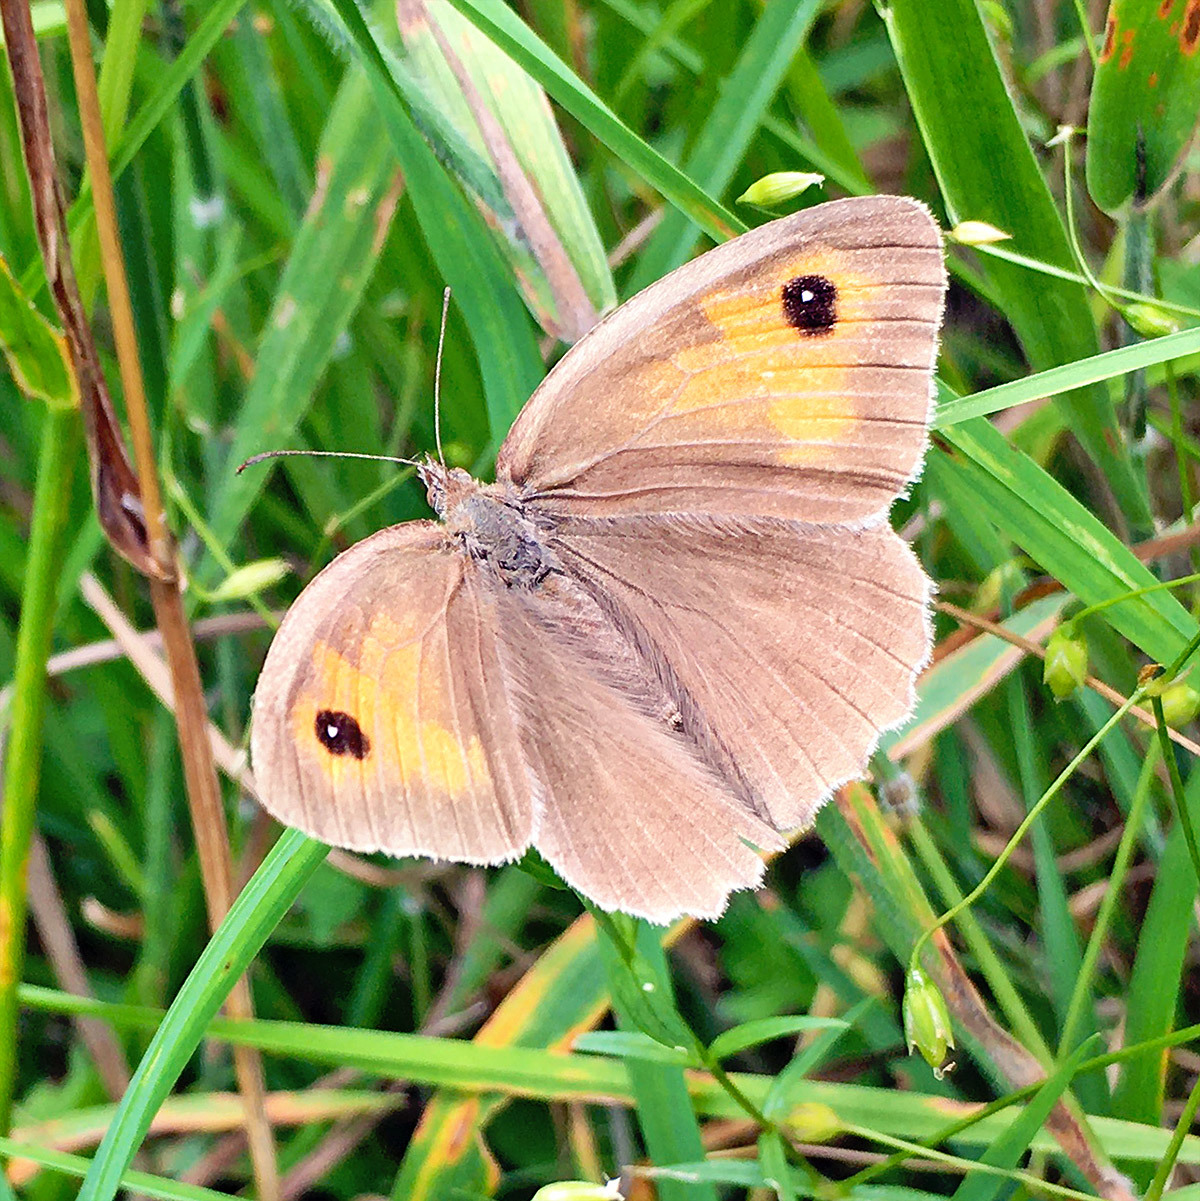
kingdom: Animalia
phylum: Arthropoda
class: Insecta
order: Lepidoptera
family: Nymphalidae
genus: Maniola
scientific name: Maniola jurtina
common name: Meadow brown
